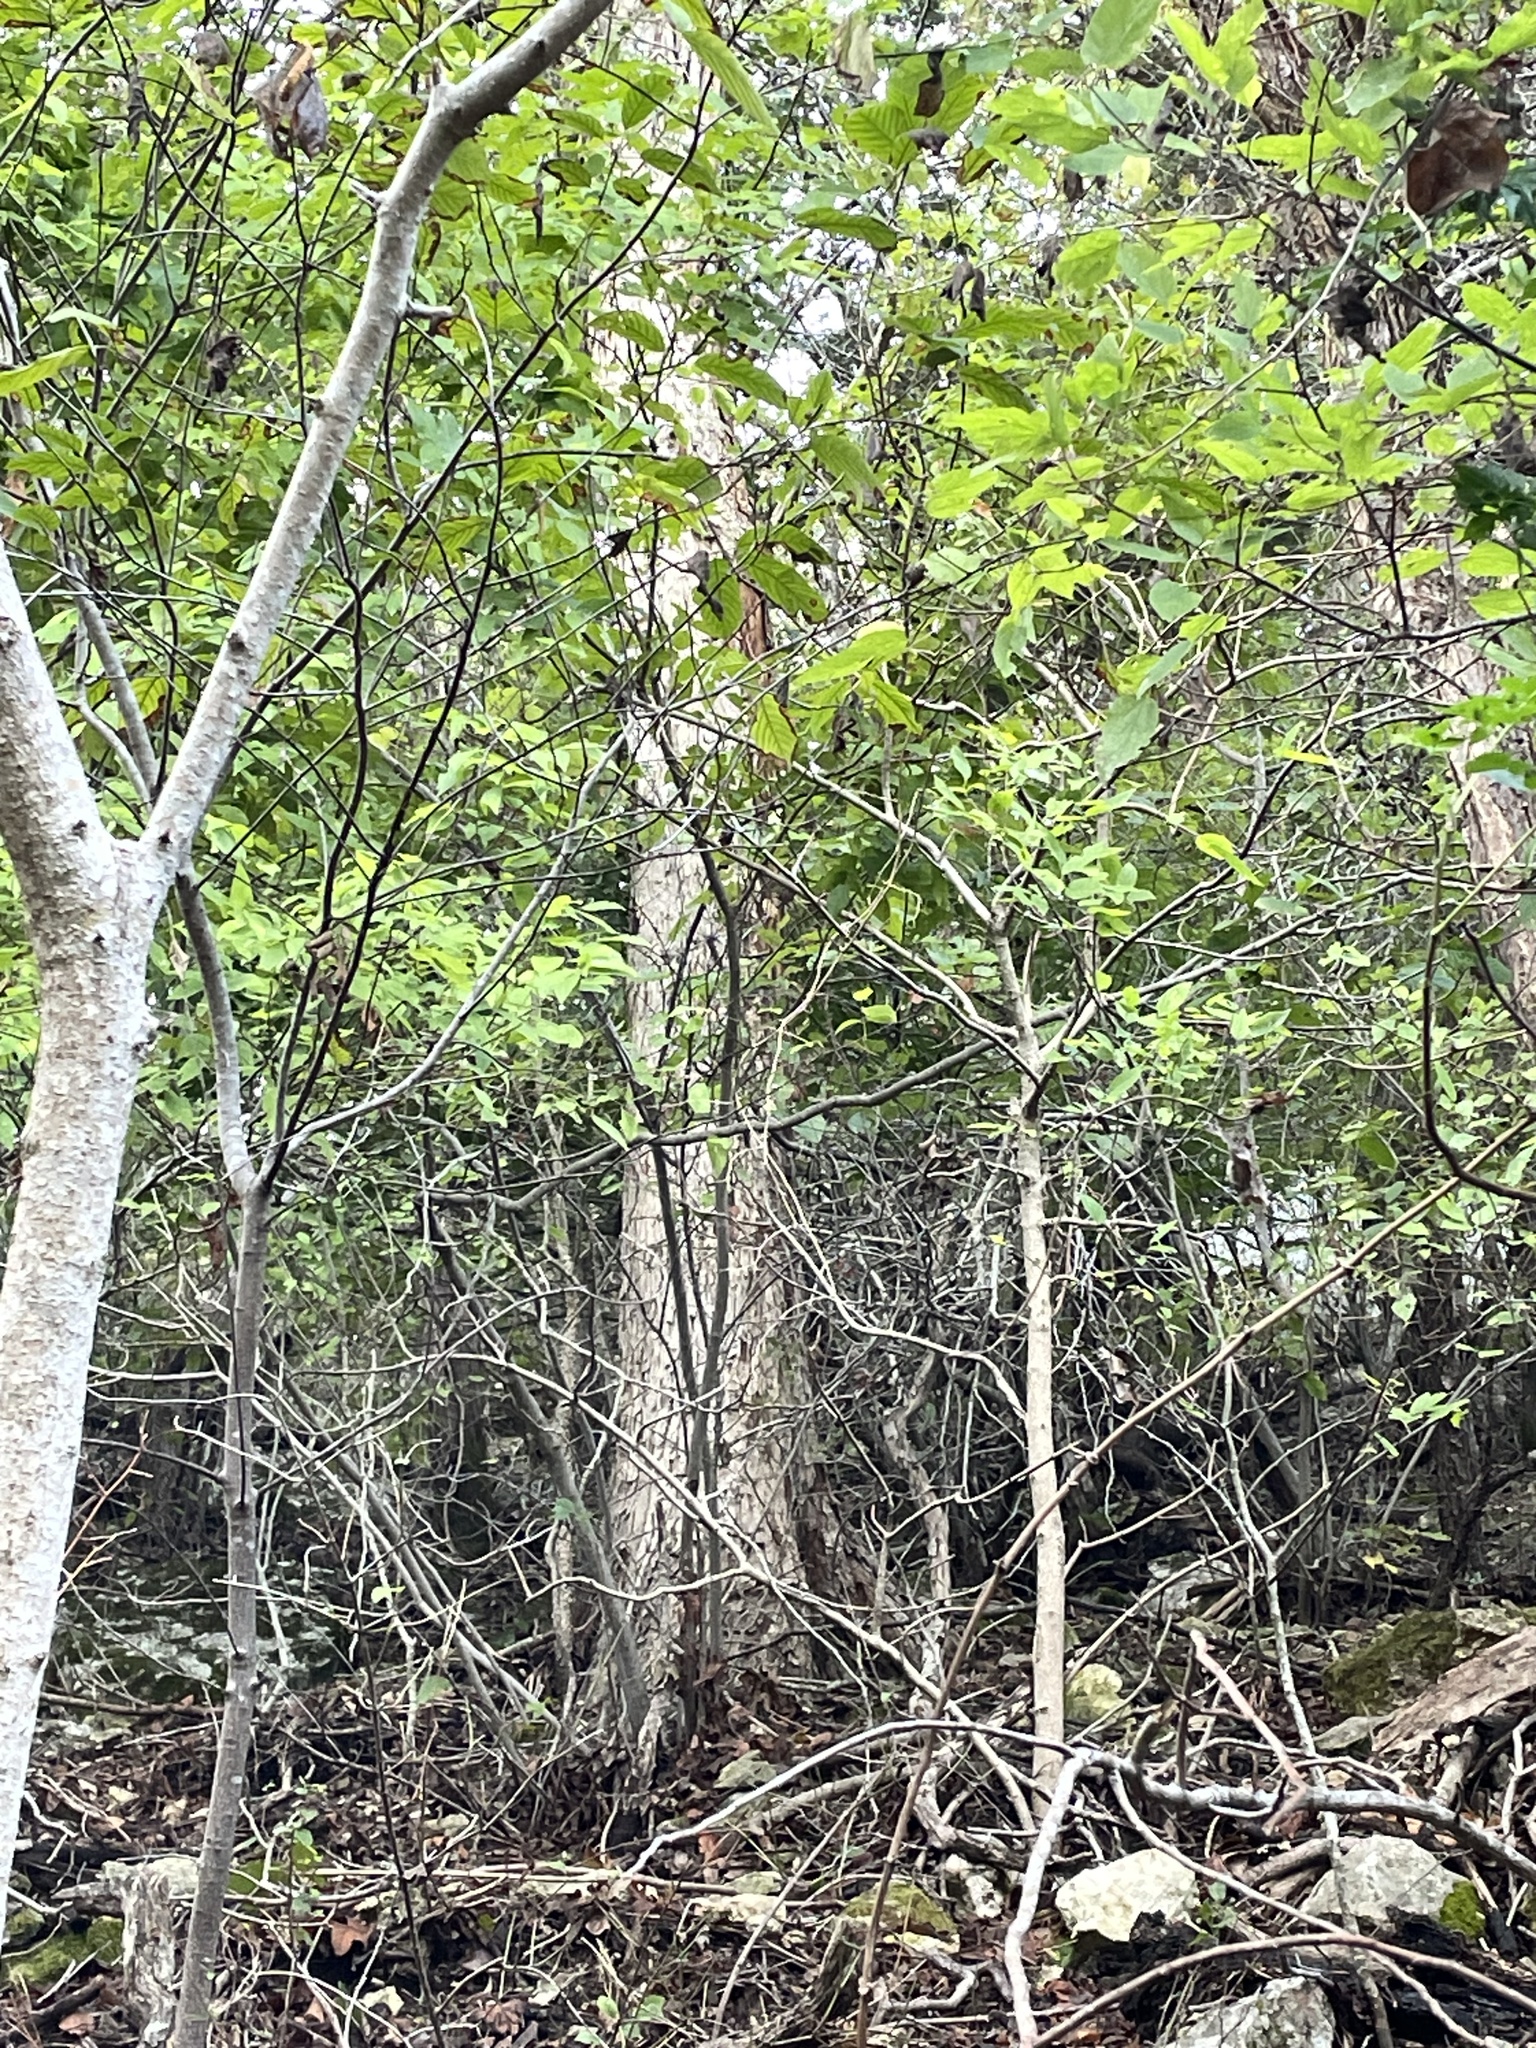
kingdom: Plantae
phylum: Tracheophyta
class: Magnoliopsida
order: Fagales
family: Fagaceae
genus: Quercus
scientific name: Quercus sinuata
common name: Durand oak
